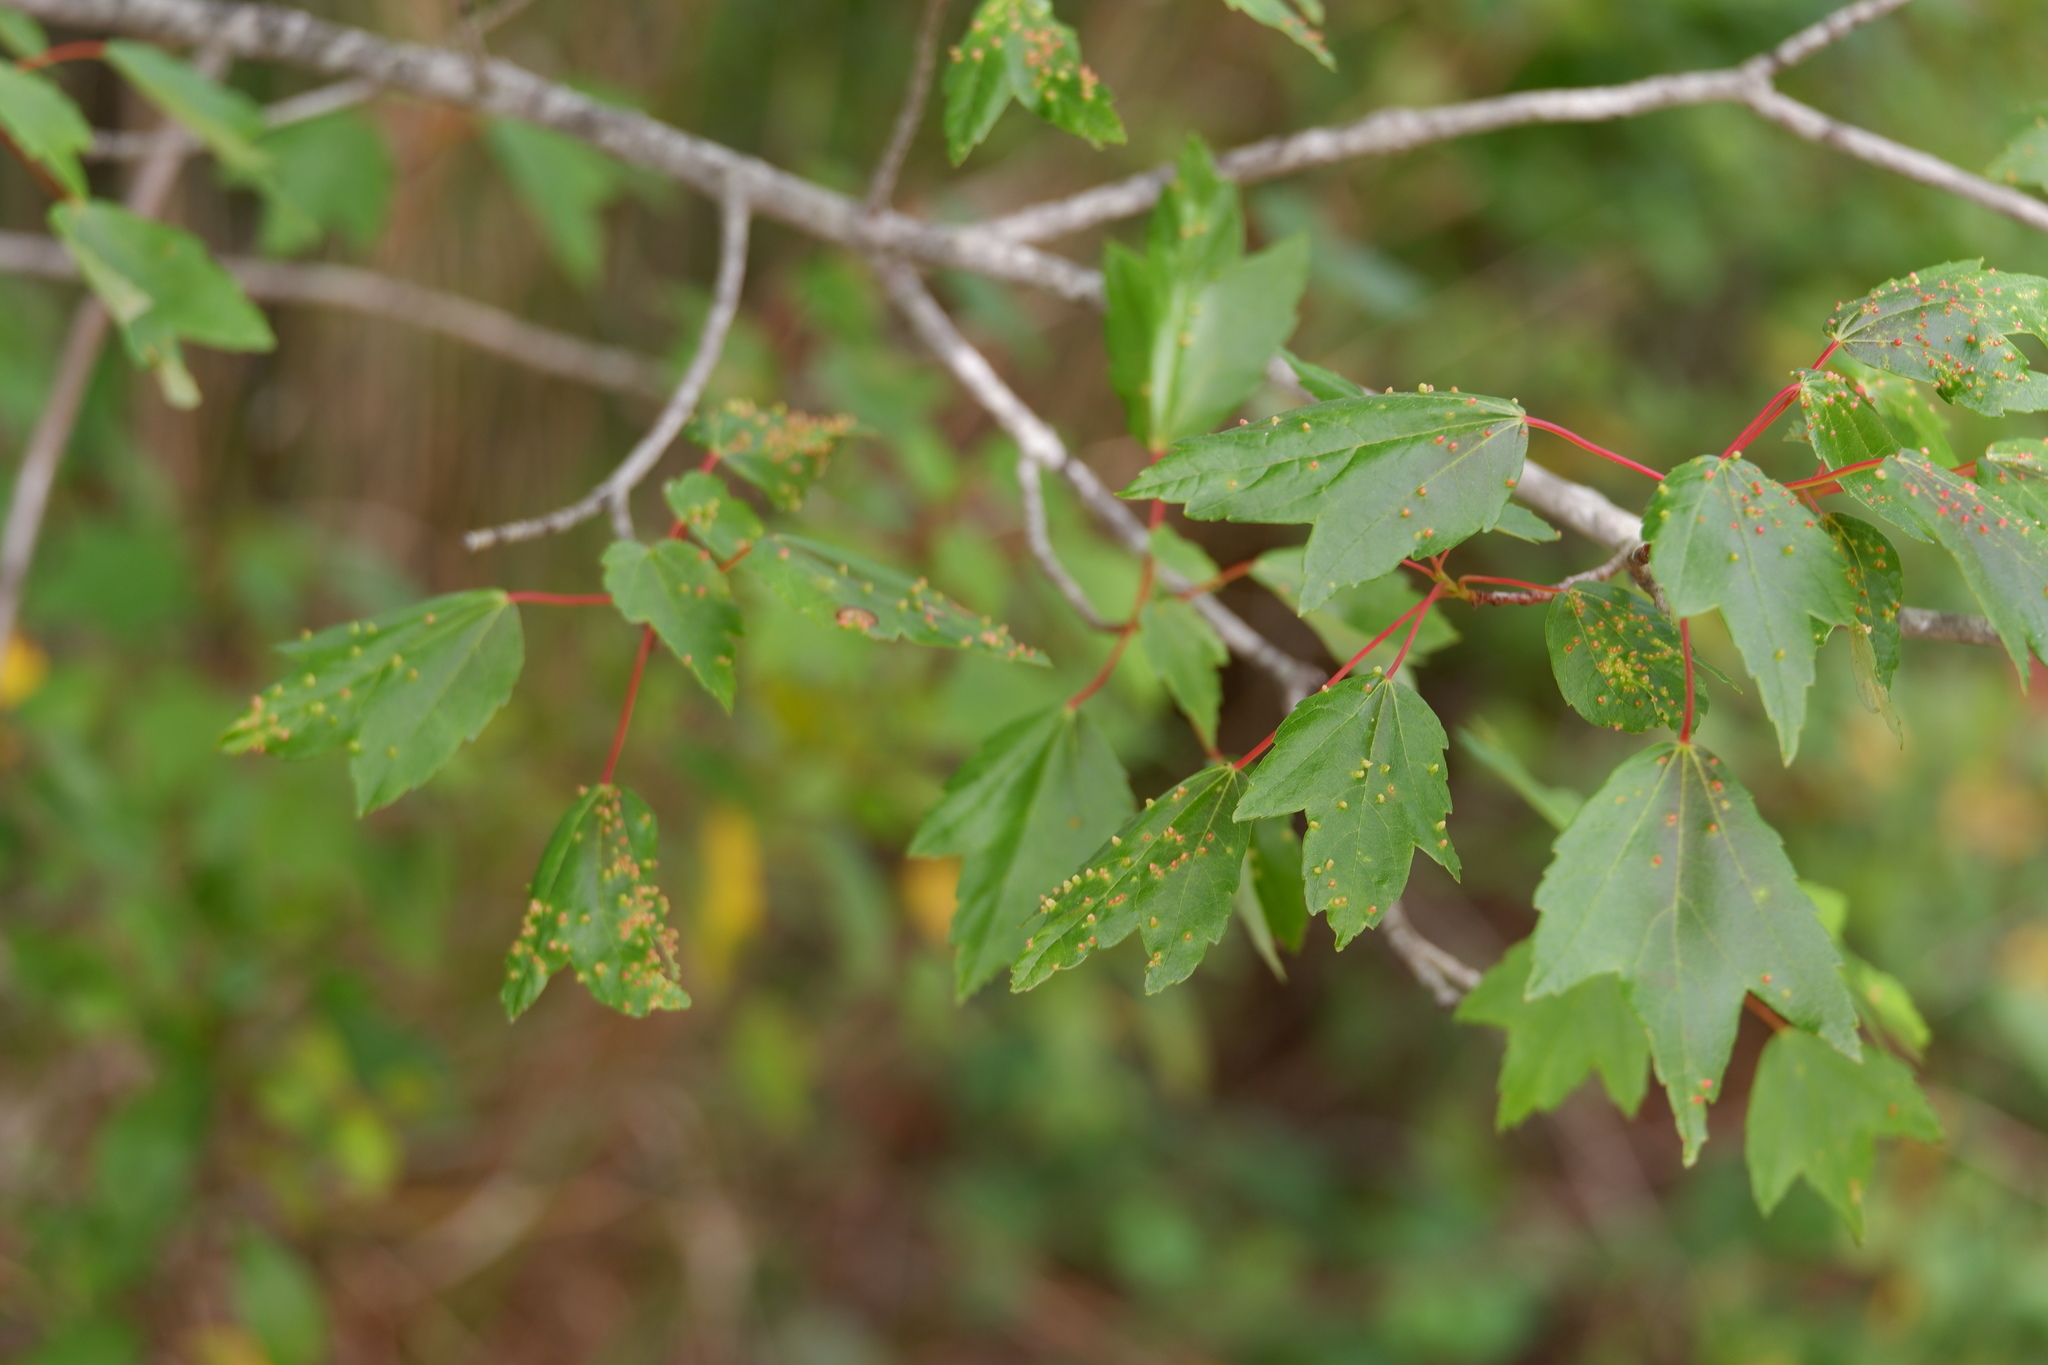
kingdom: Animalia
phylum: Arthropoda
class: Arachnida
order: Trombidiformes
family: Eriophyidae
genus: Vasates
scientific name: Vasates quadripedes
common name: Maple bladder gall mite
